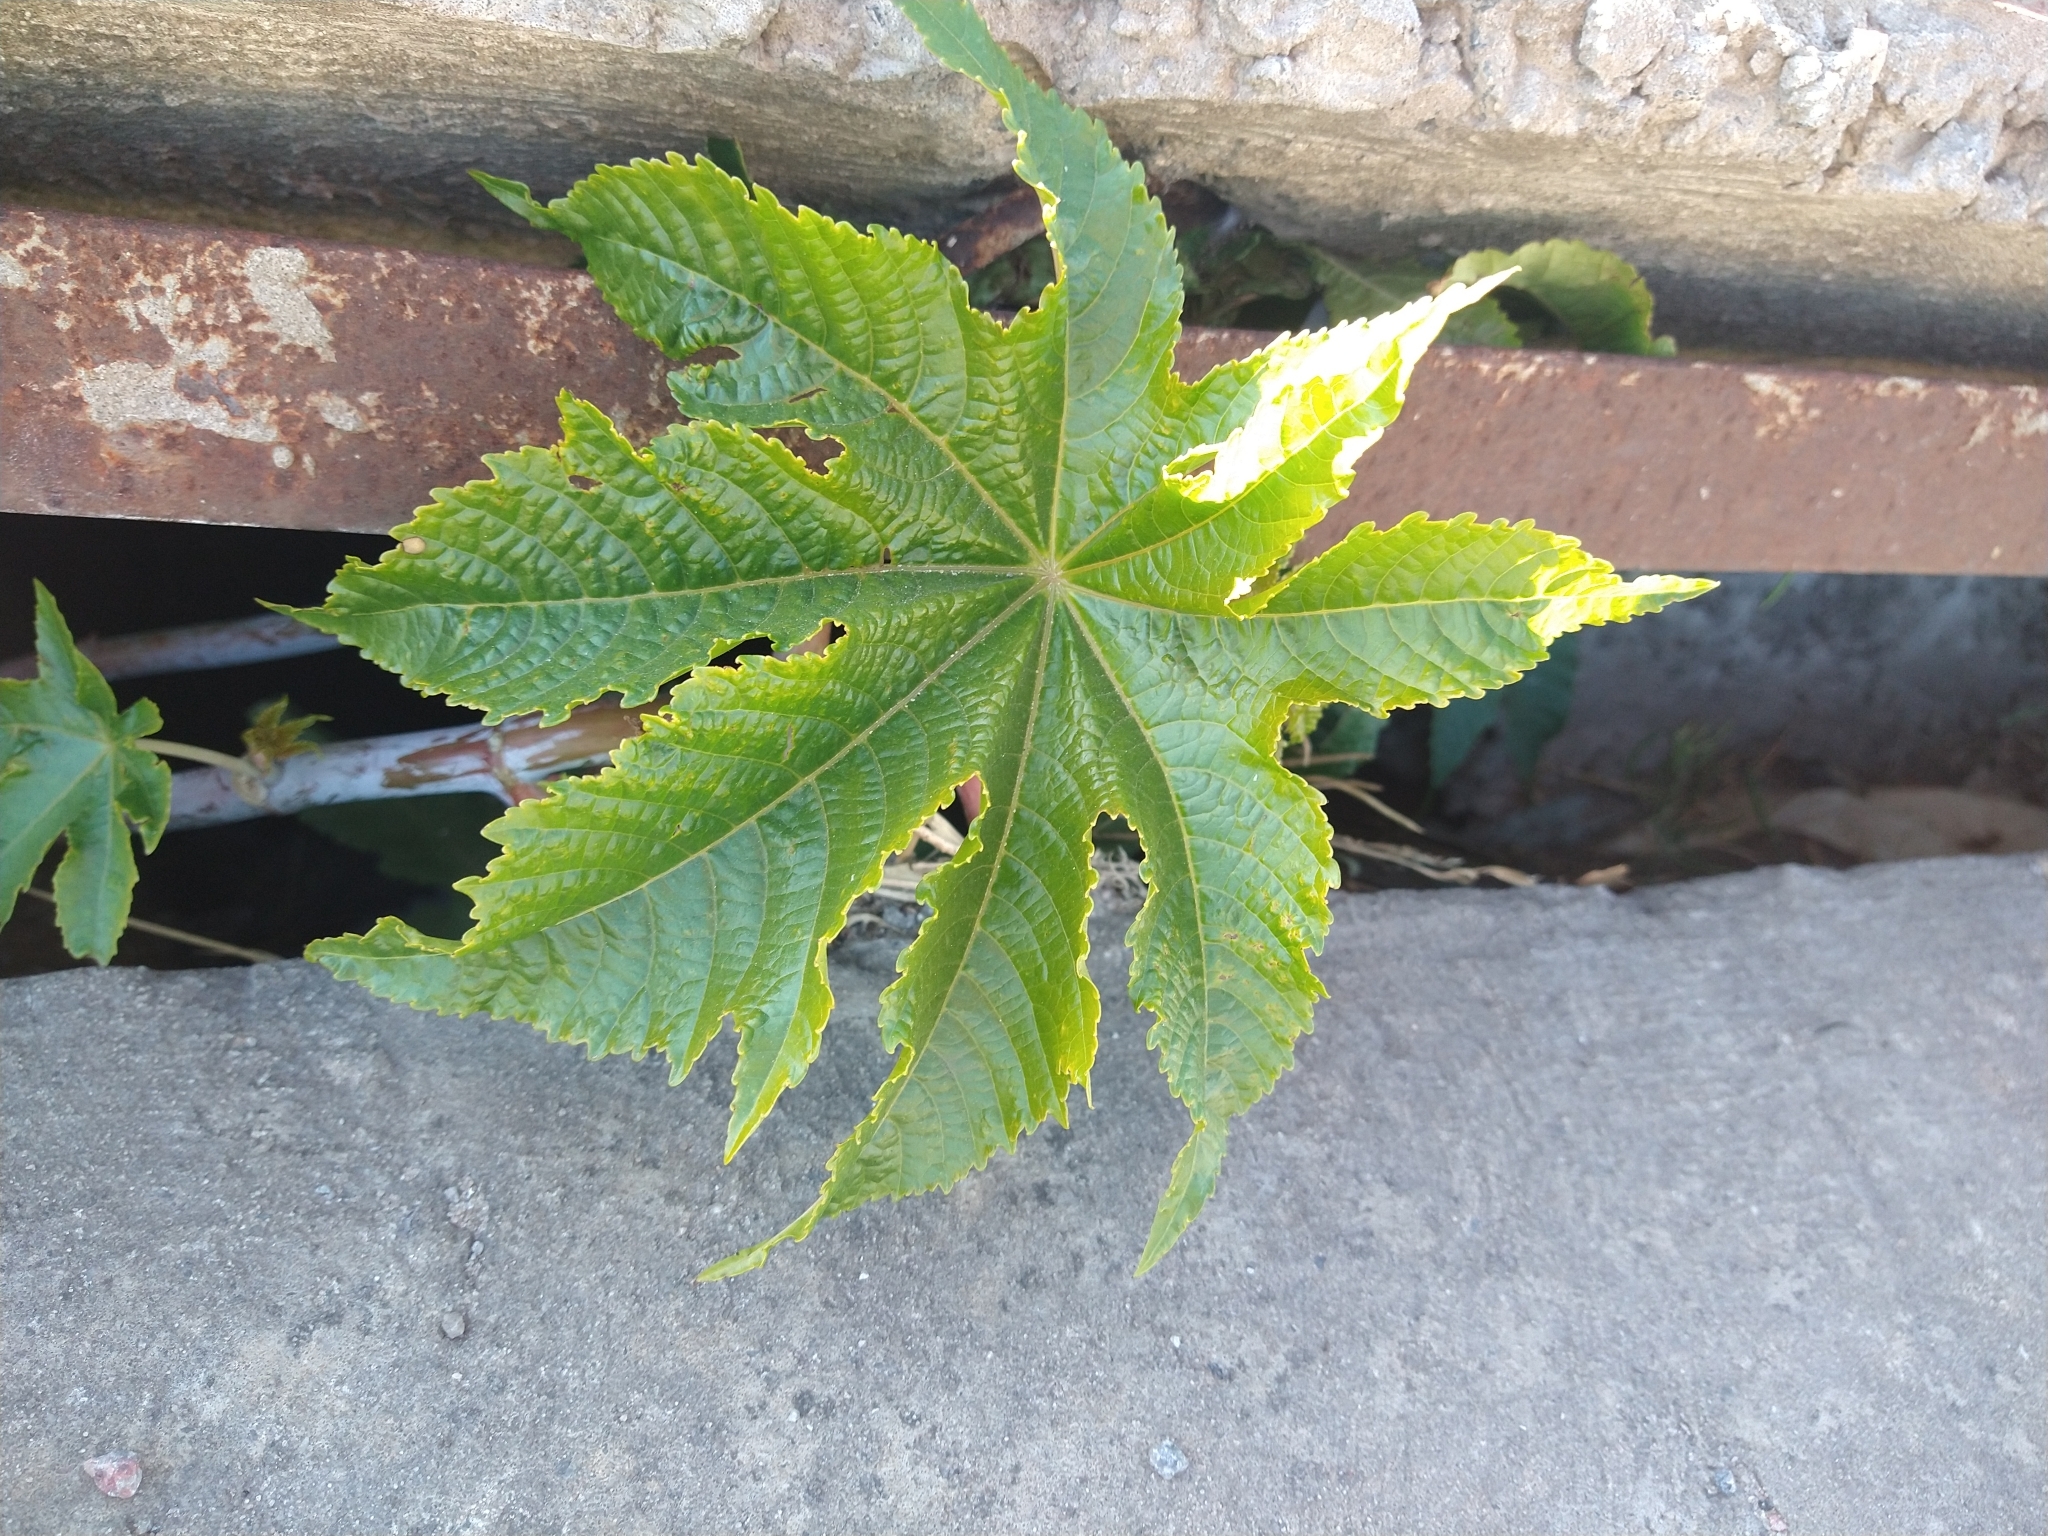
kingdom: Plantae
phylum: Tracheophyta
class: Magnoliopsida
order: Malpighiales
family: Euphorbiaceae
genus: Ricinus
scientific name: Ricinus communis
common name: Castor-oil-plant
